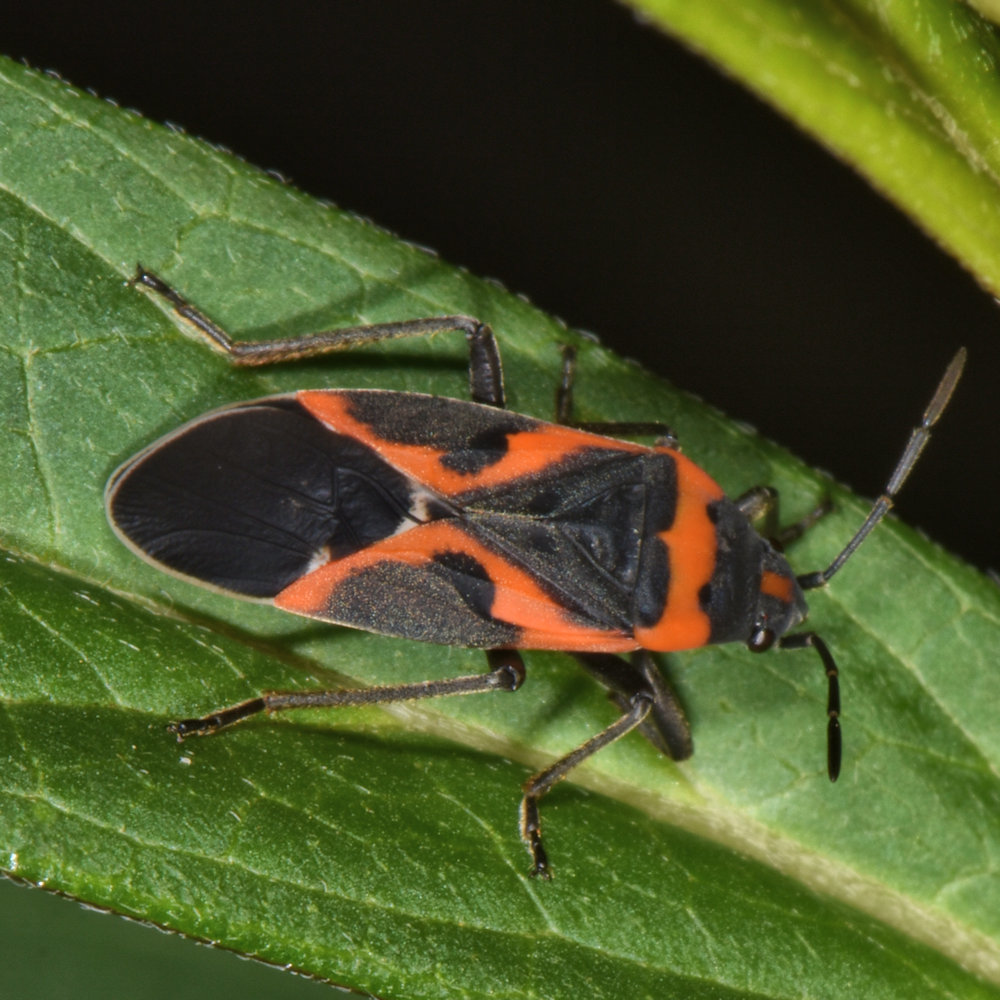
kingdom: Animalia
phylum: Arthropoda
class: Insecta
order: Hemiptera
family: Lygaeidae
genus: Lygaeus
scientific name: Lygaeus kalmii
